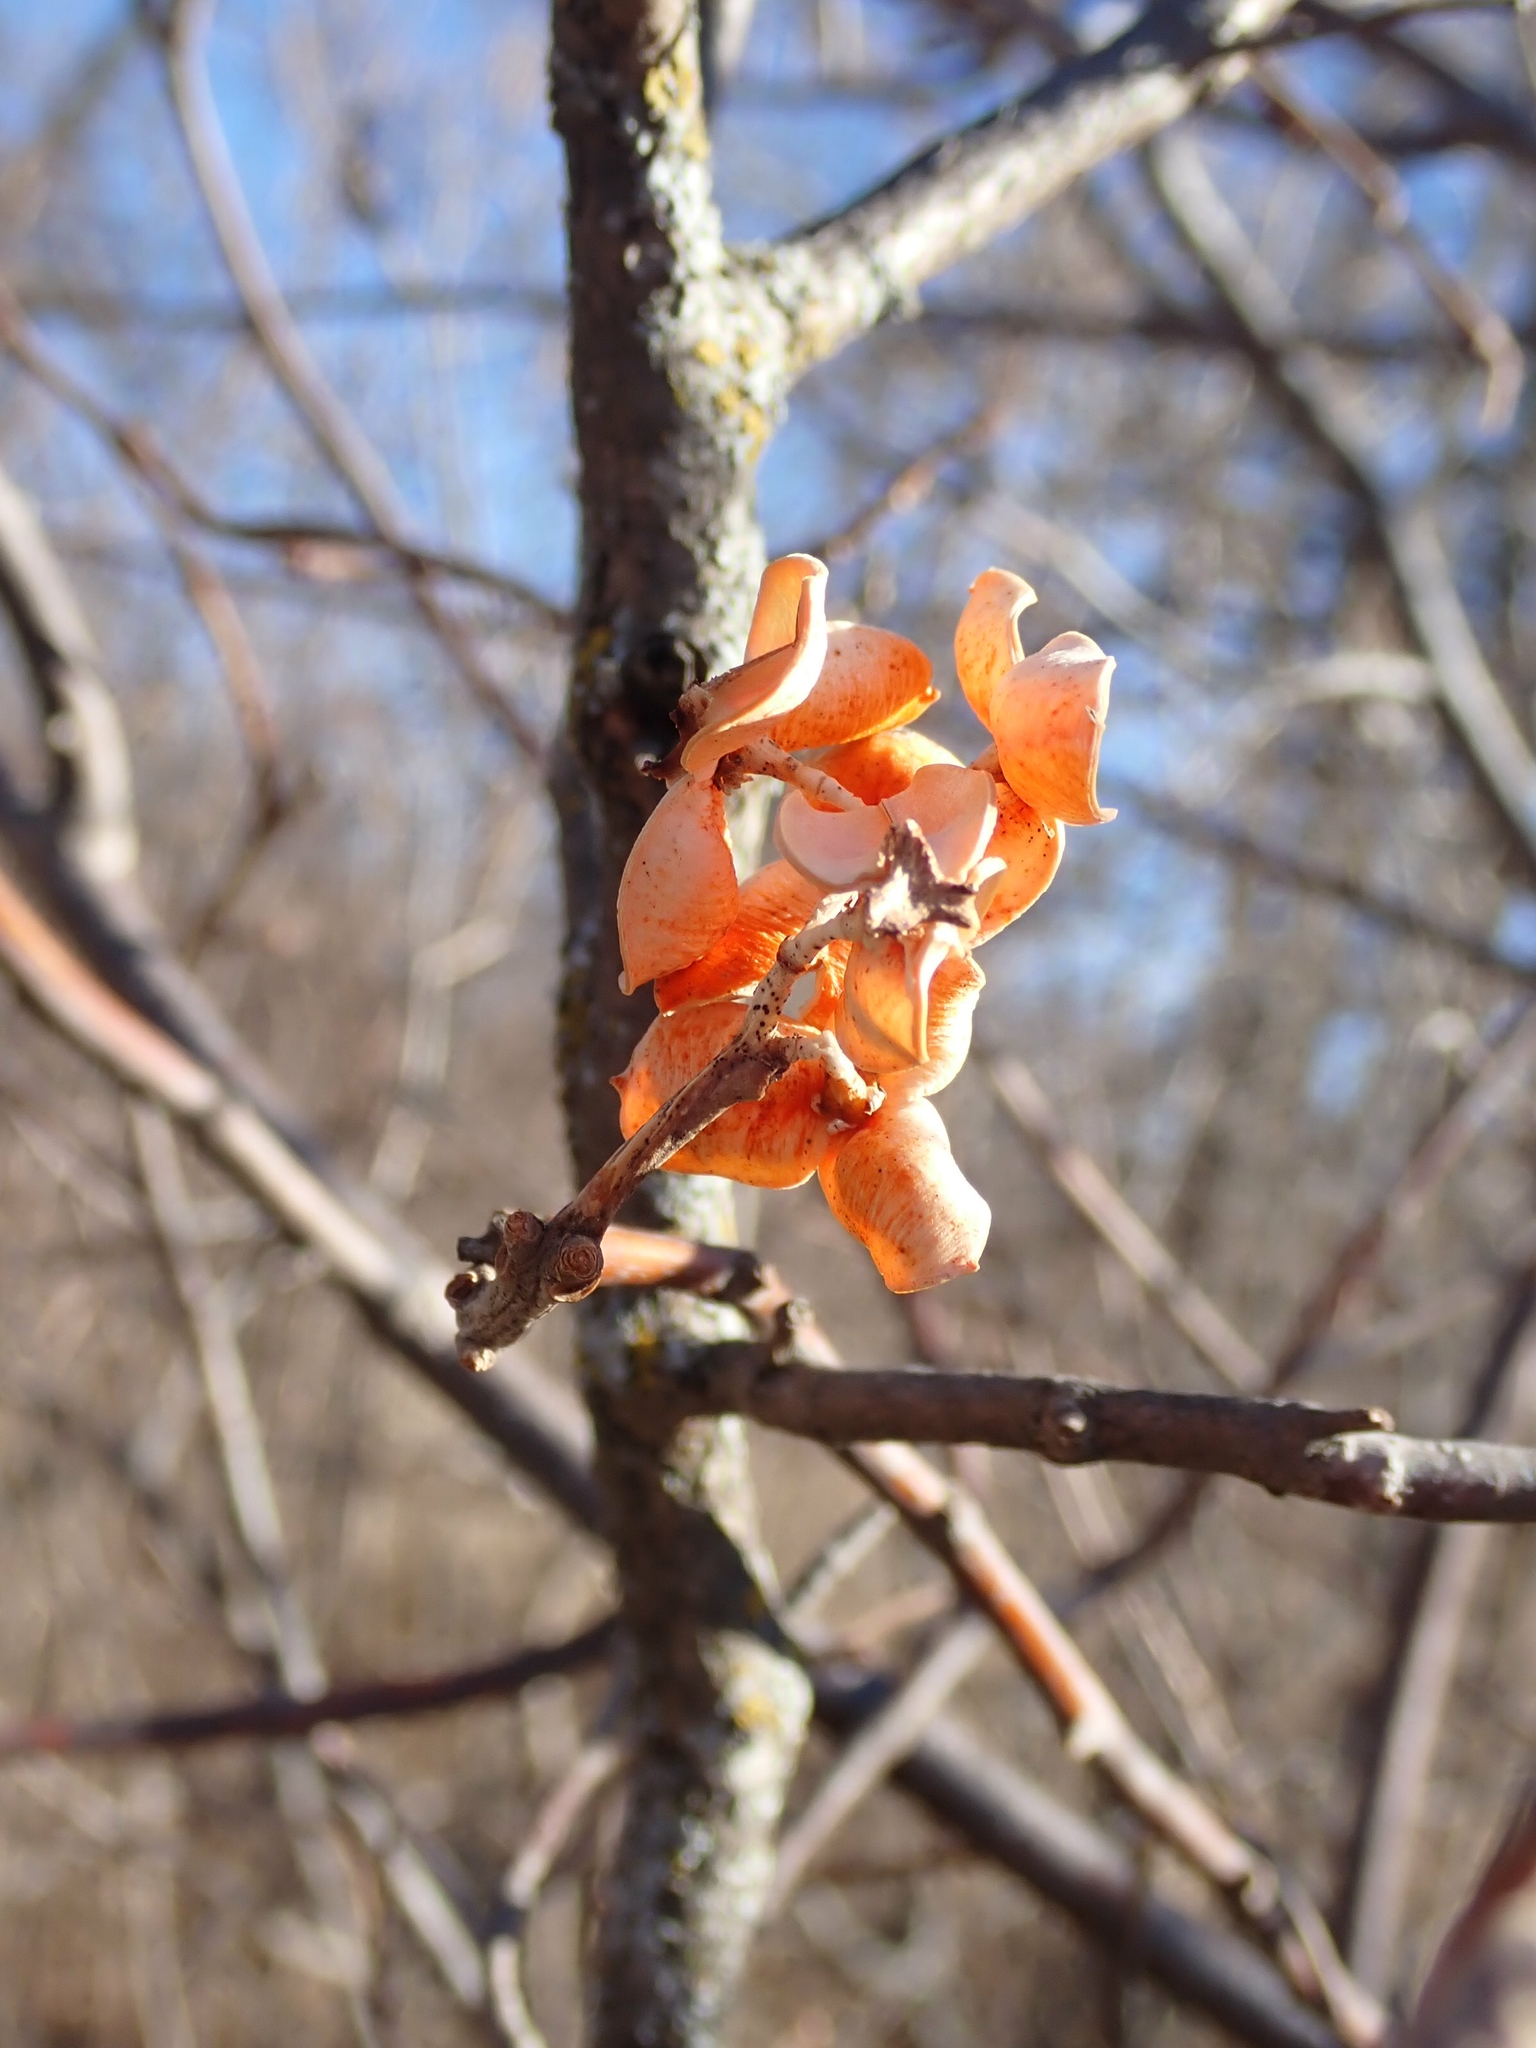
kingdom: Plantae
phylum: Tracheophyta
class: Magnoliopsida
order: Celastrales
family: Celastraceae
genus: Celastrus
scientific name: Celastrus scandens
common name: American bittersweet
